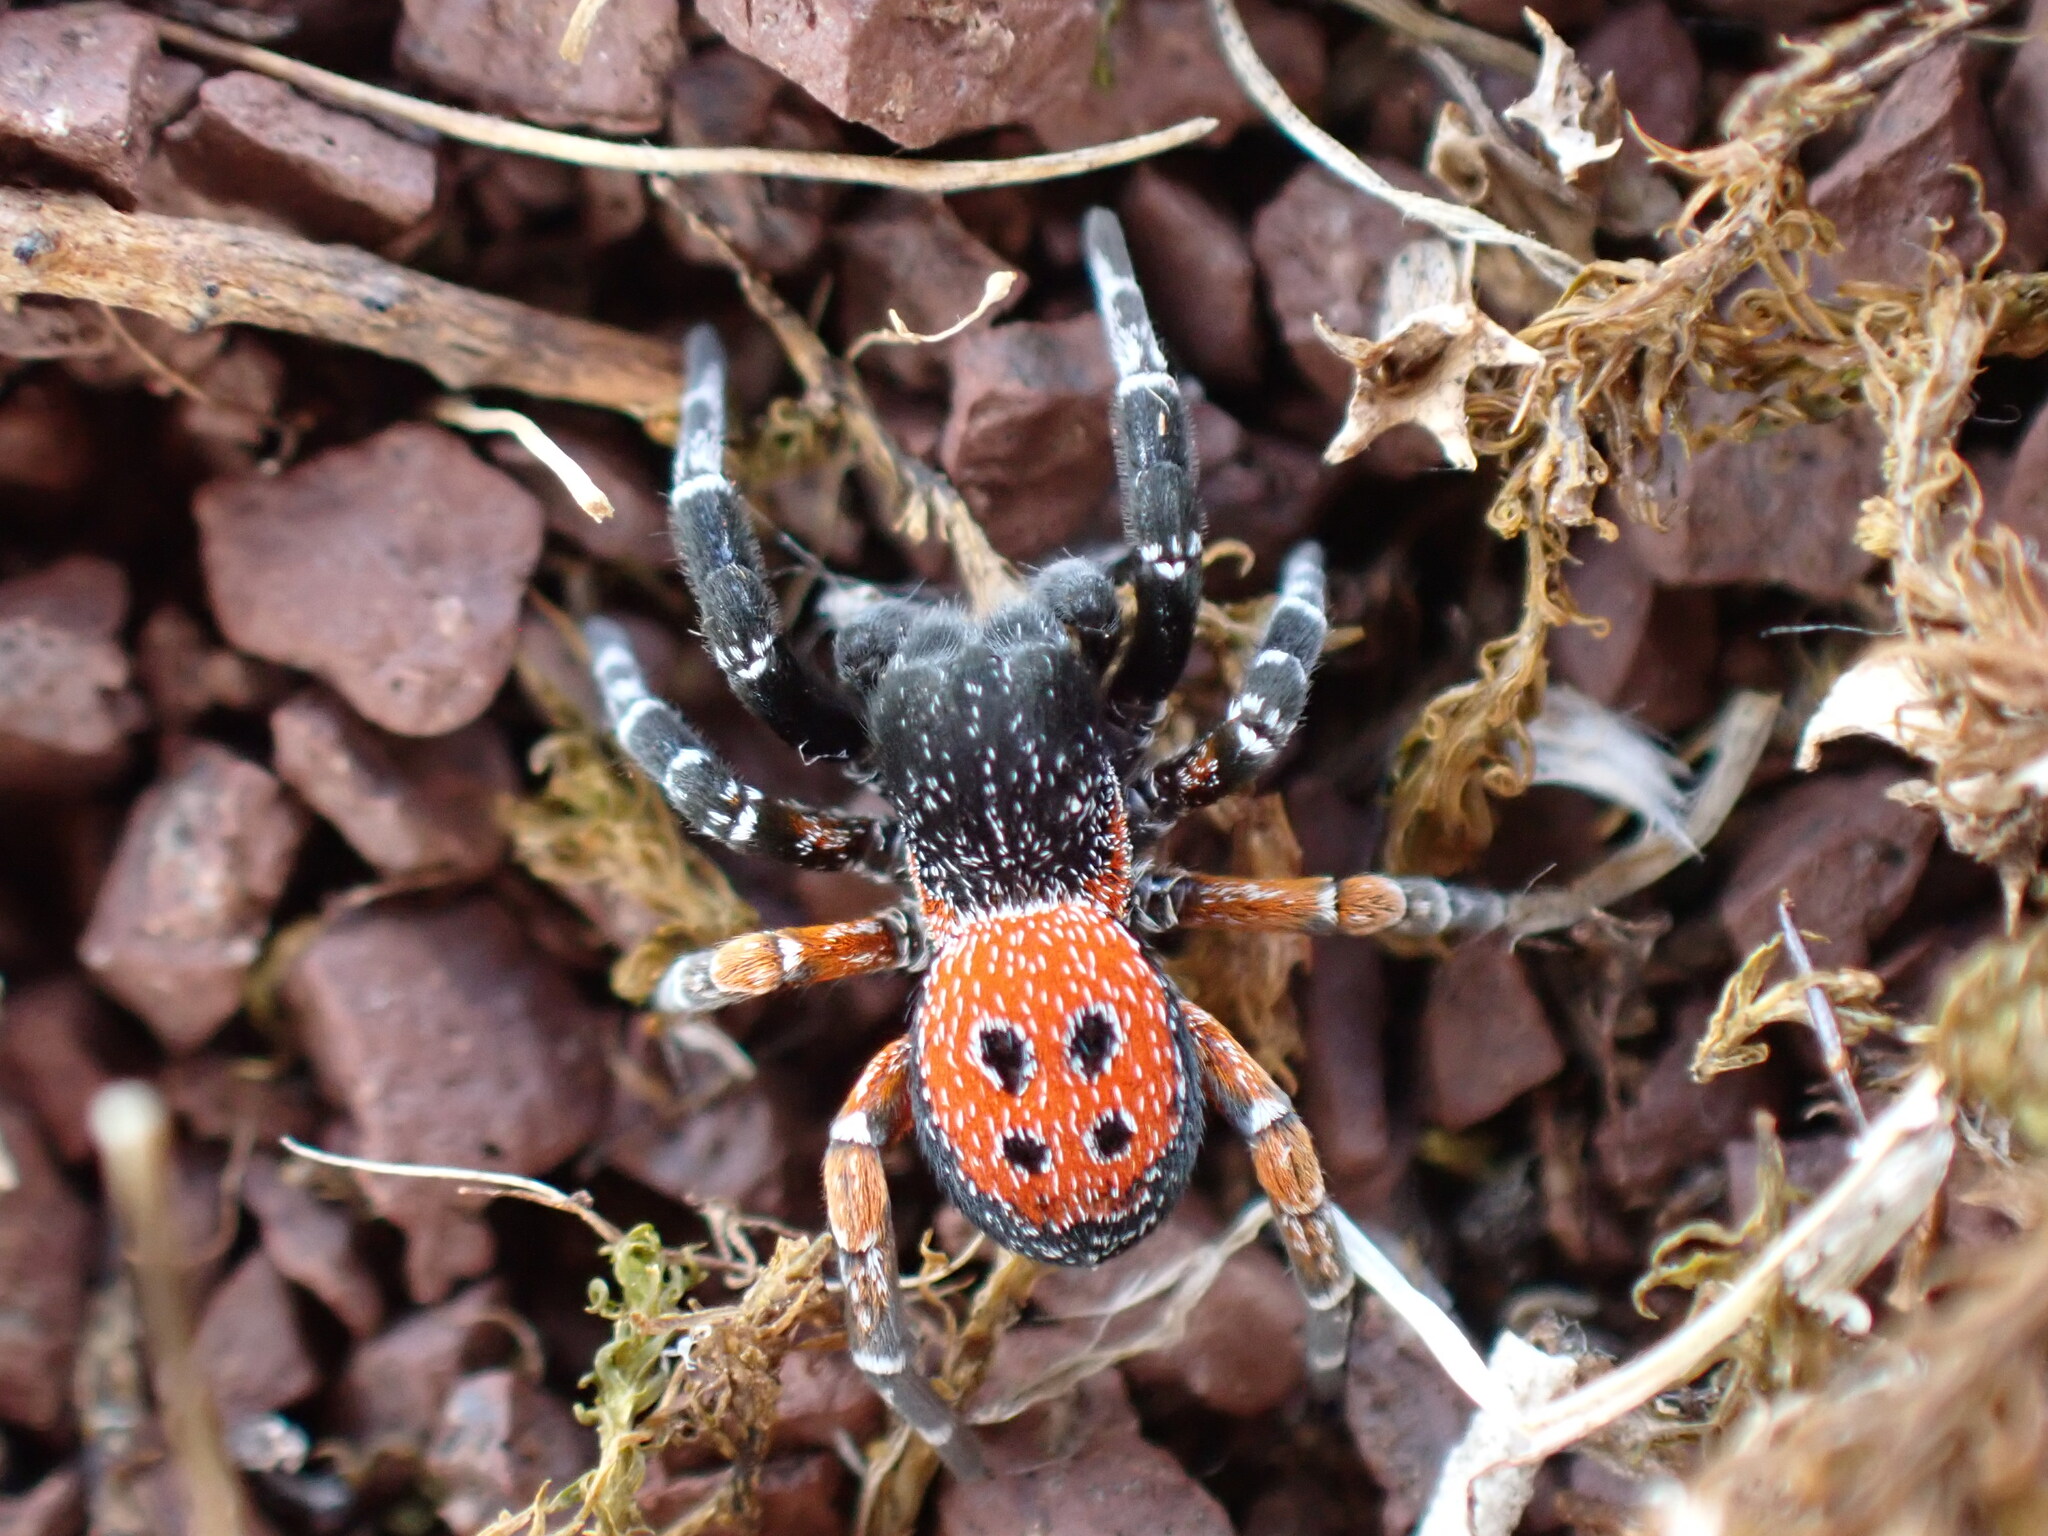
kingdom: Animalia
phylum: Arthropoda
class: Arachnida
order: Araneae
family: Eresidae
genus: Eresus
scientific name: Eresus kollari
